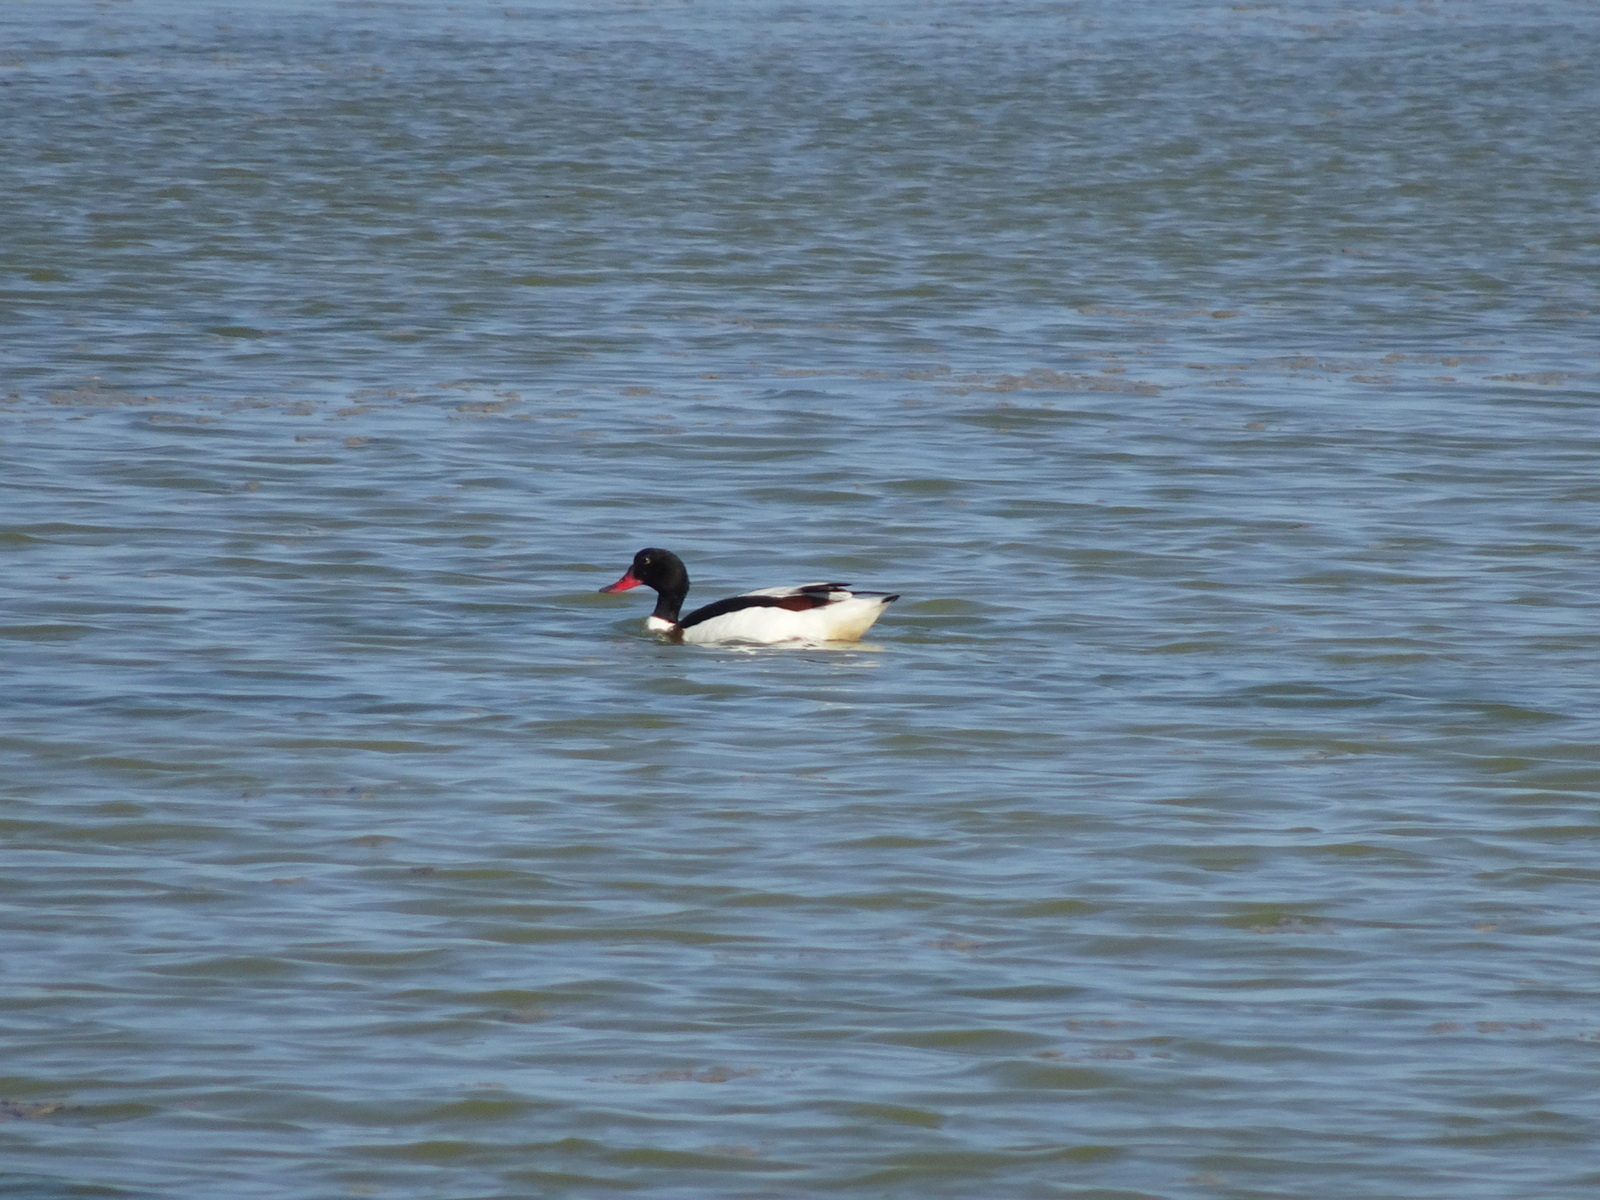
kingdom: Animalia
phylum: Chordata
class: Aves
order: Anseriformes
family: Anatidae
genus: Tadorna
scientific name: Tadorna tadorna
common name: Common shelduck
